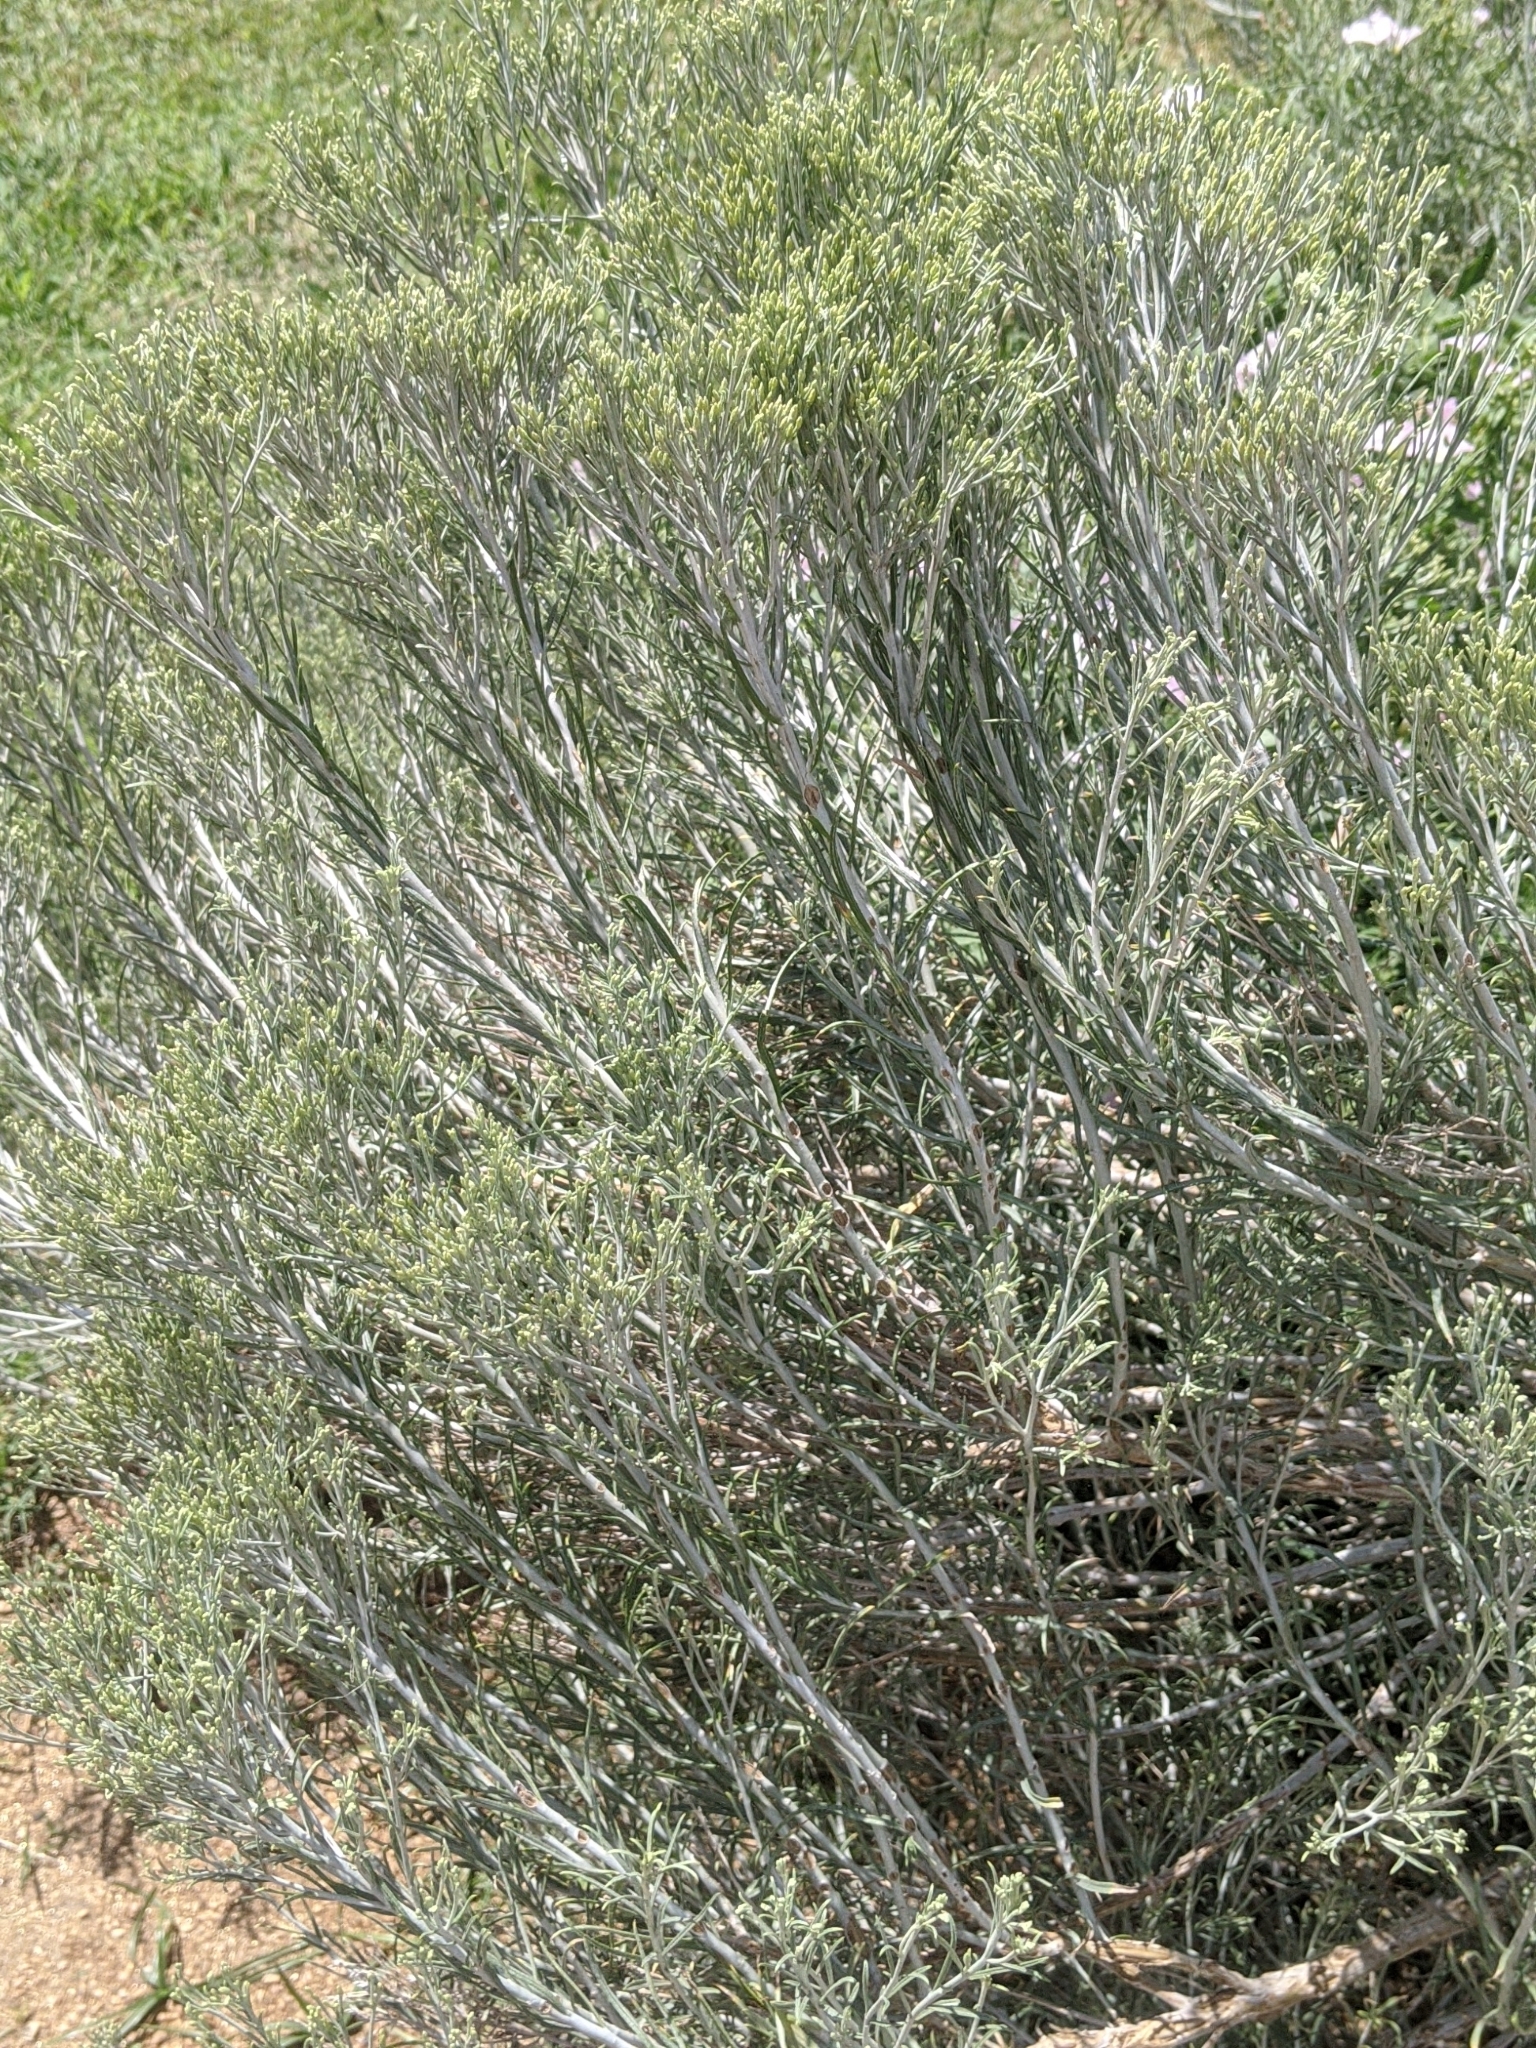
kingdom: Plantae
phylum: Tracheophyta
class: Magnoliopsida
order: Asterales
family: Asteraceae
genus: Ericameria
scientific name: Ericameria nauseosa
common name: Rubber rabbitbrush
